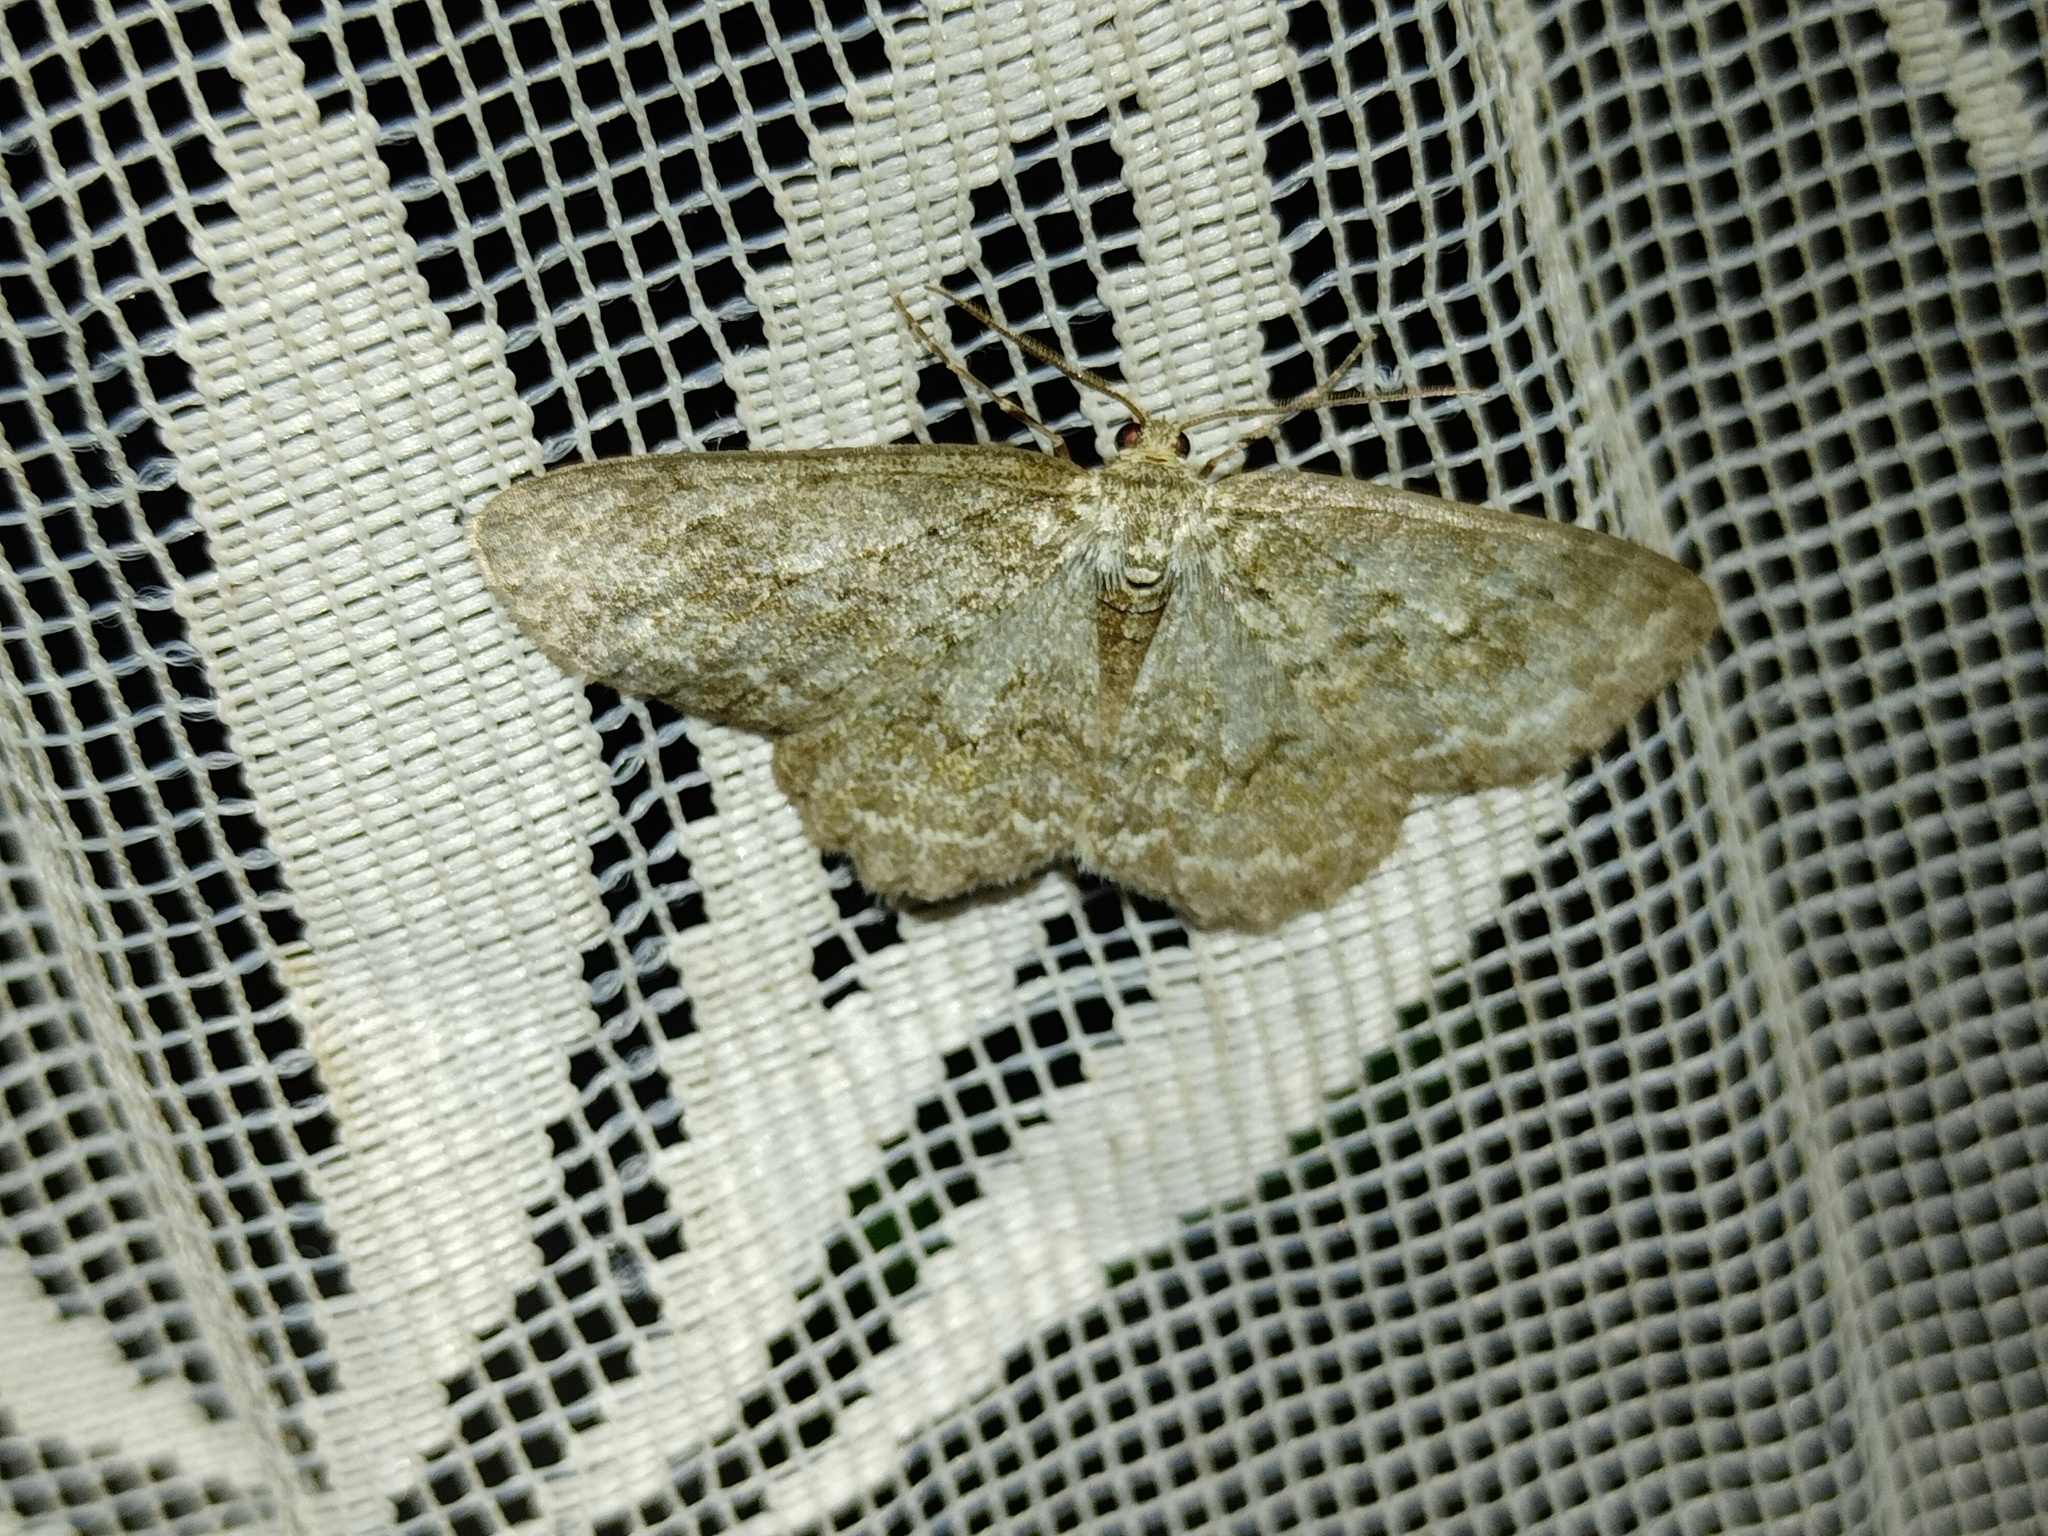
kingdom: Animalia
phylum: Arthropoda
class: Insecta
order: Lepidoptera
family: Geometridae
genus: Ectropis
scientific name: Ectropis crepuscularia
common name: Engrailed
